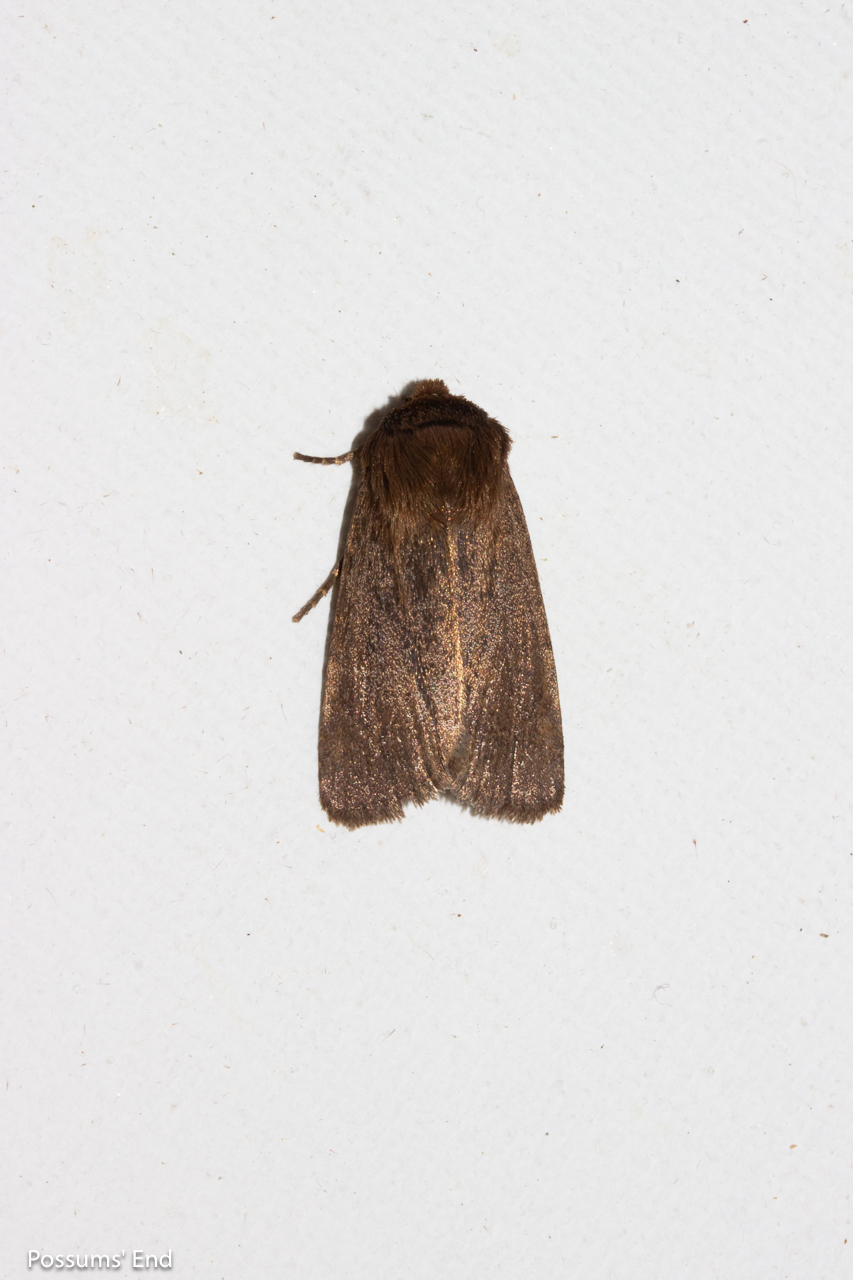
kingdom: Animalia
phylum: Arthropoda
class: Insecta
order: Lepidoptera
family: Noctuidae
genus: Bityla
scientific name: Bityla defigurata
